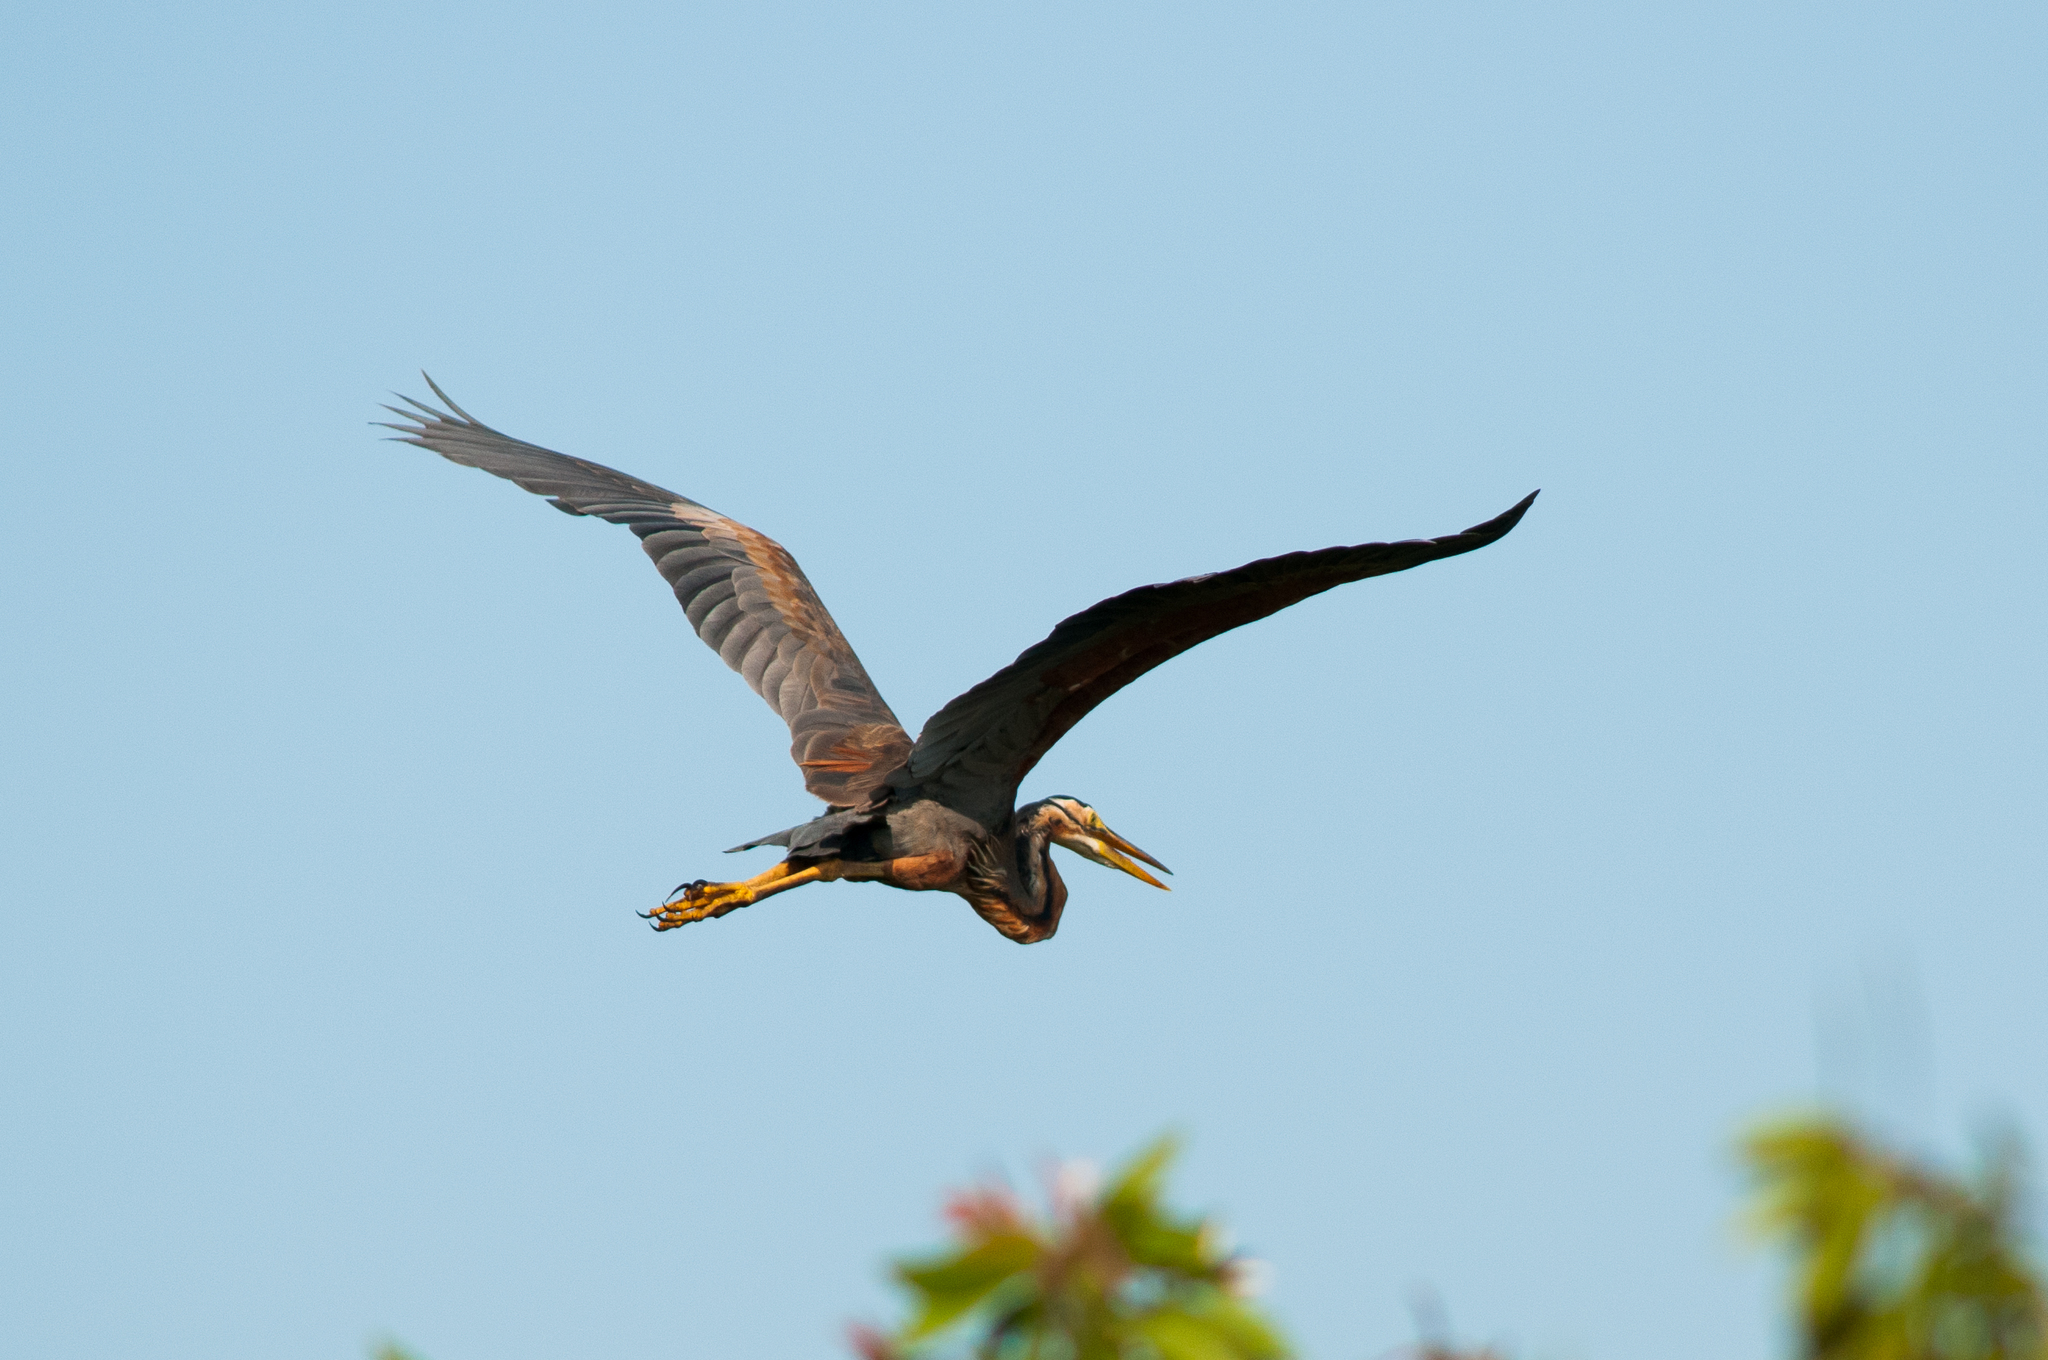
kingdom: Animalia
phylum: Chordata
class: Aves
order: Pelecaniformes
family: Ardeidae
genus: Ardea
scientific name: Ardea purpurea
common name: Purple heron
